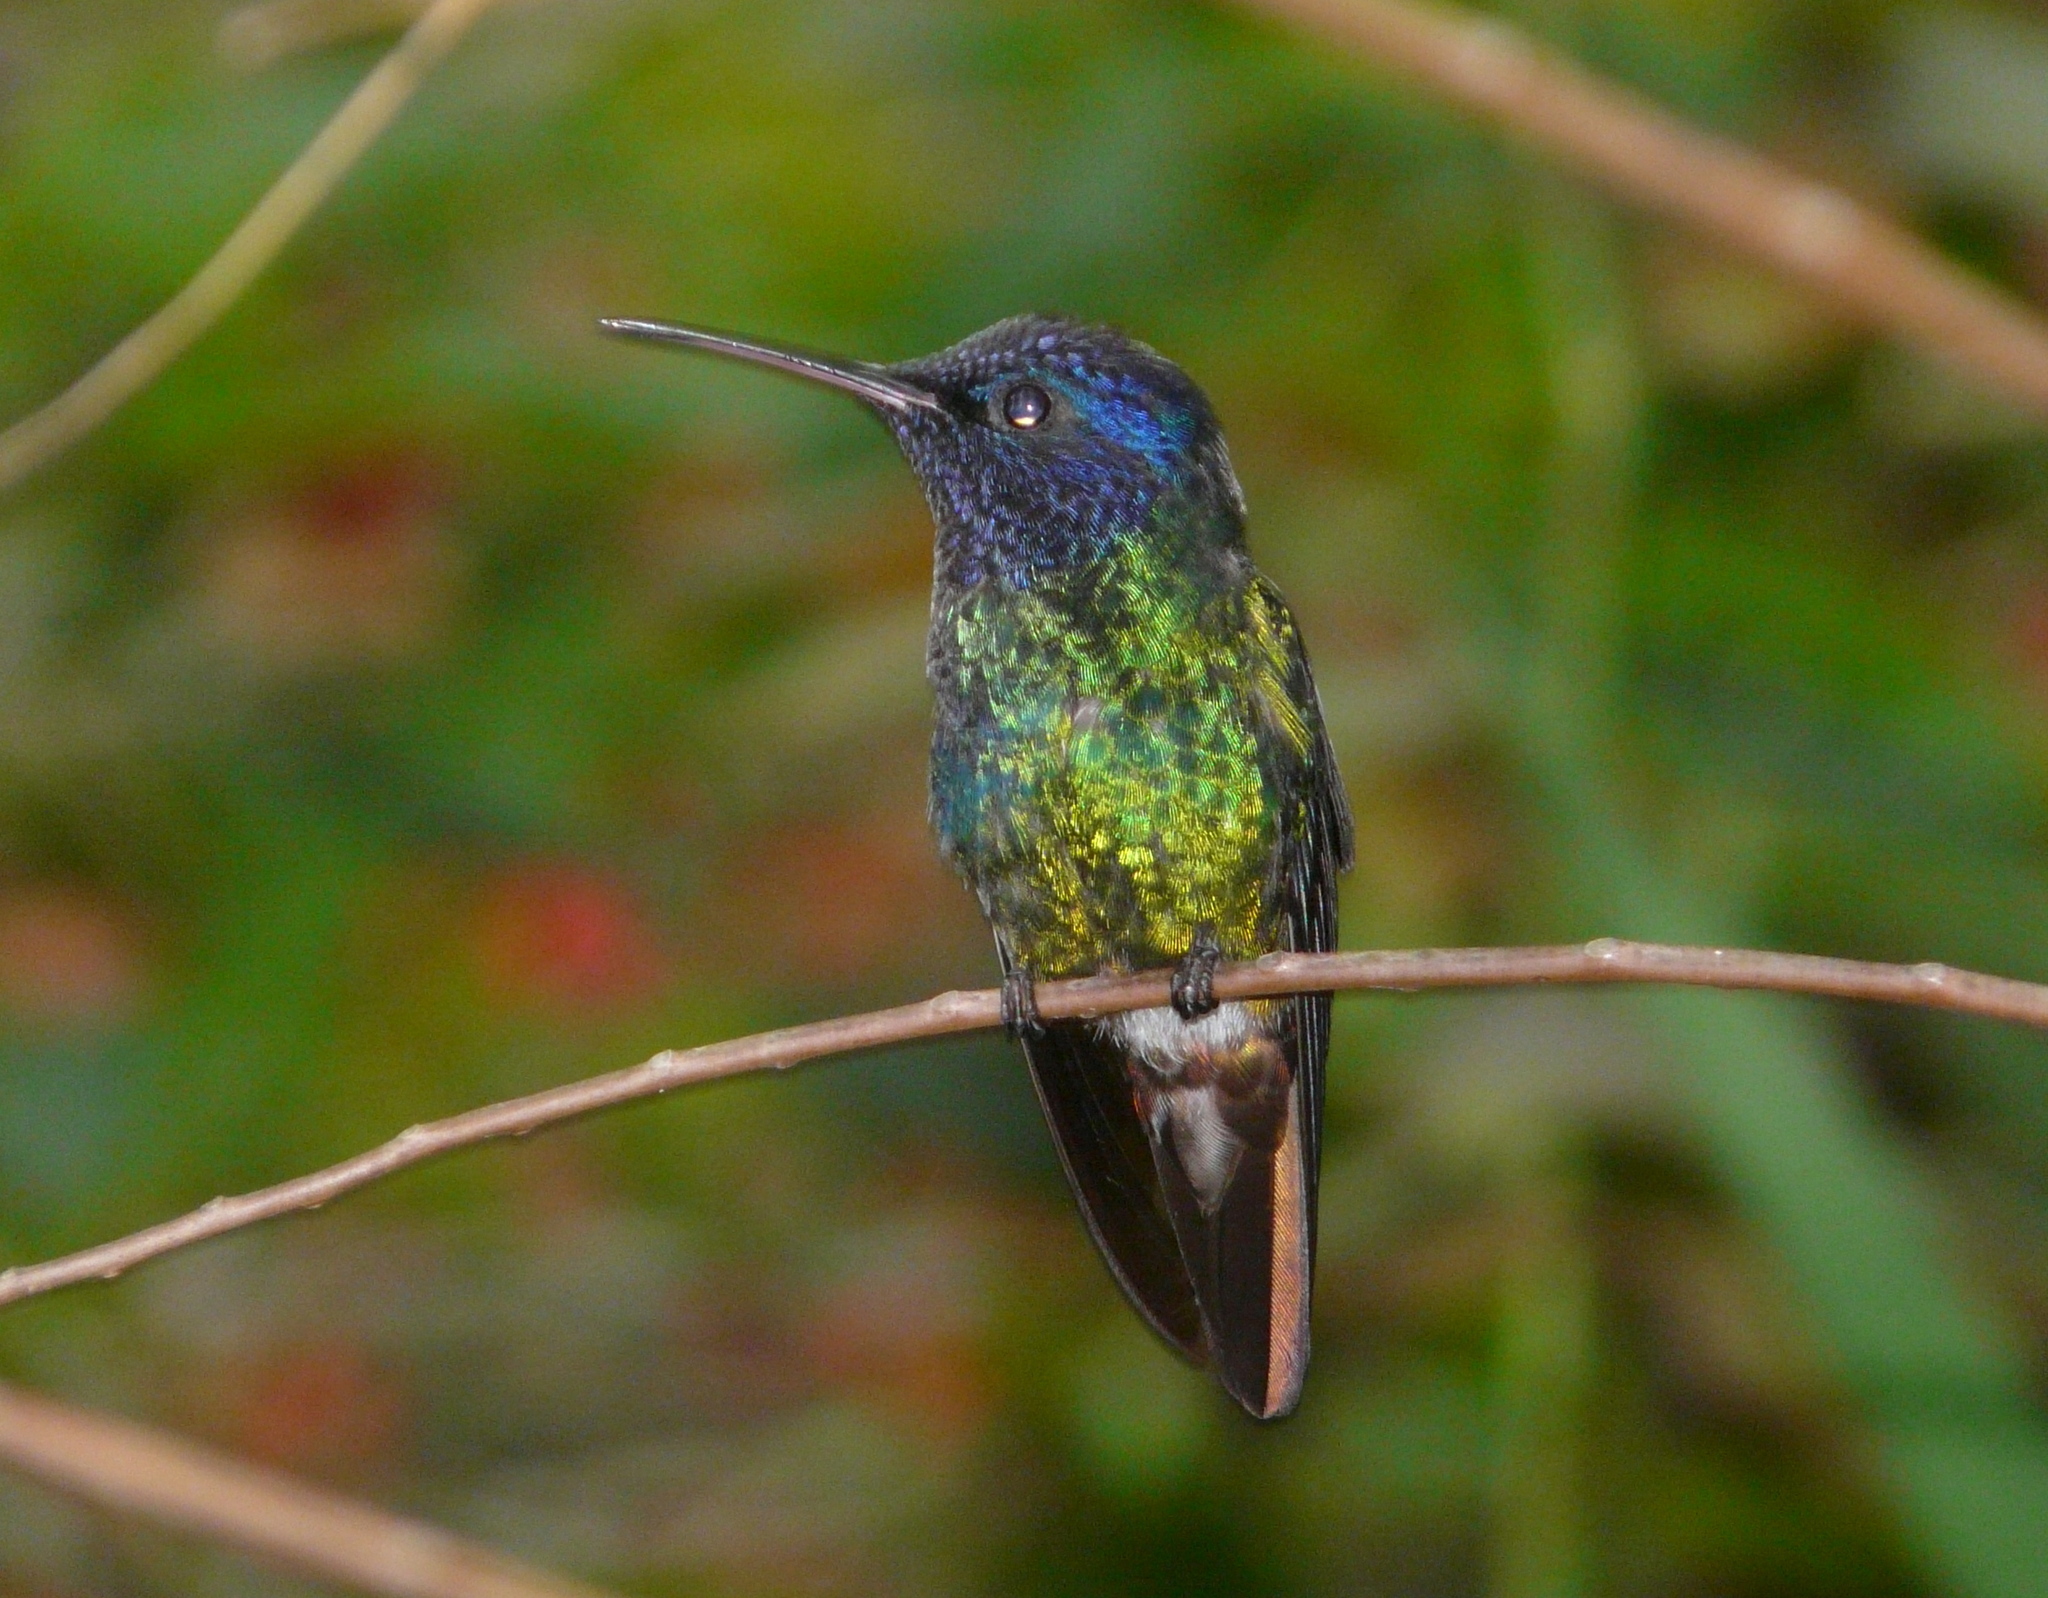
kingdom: Animalia
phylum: Chordata
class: Aves
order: Apodiformes
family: Trochilidae
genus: Chrysuronia
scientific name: Chrysuronia oenone
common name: Golden-tailed sapphire
